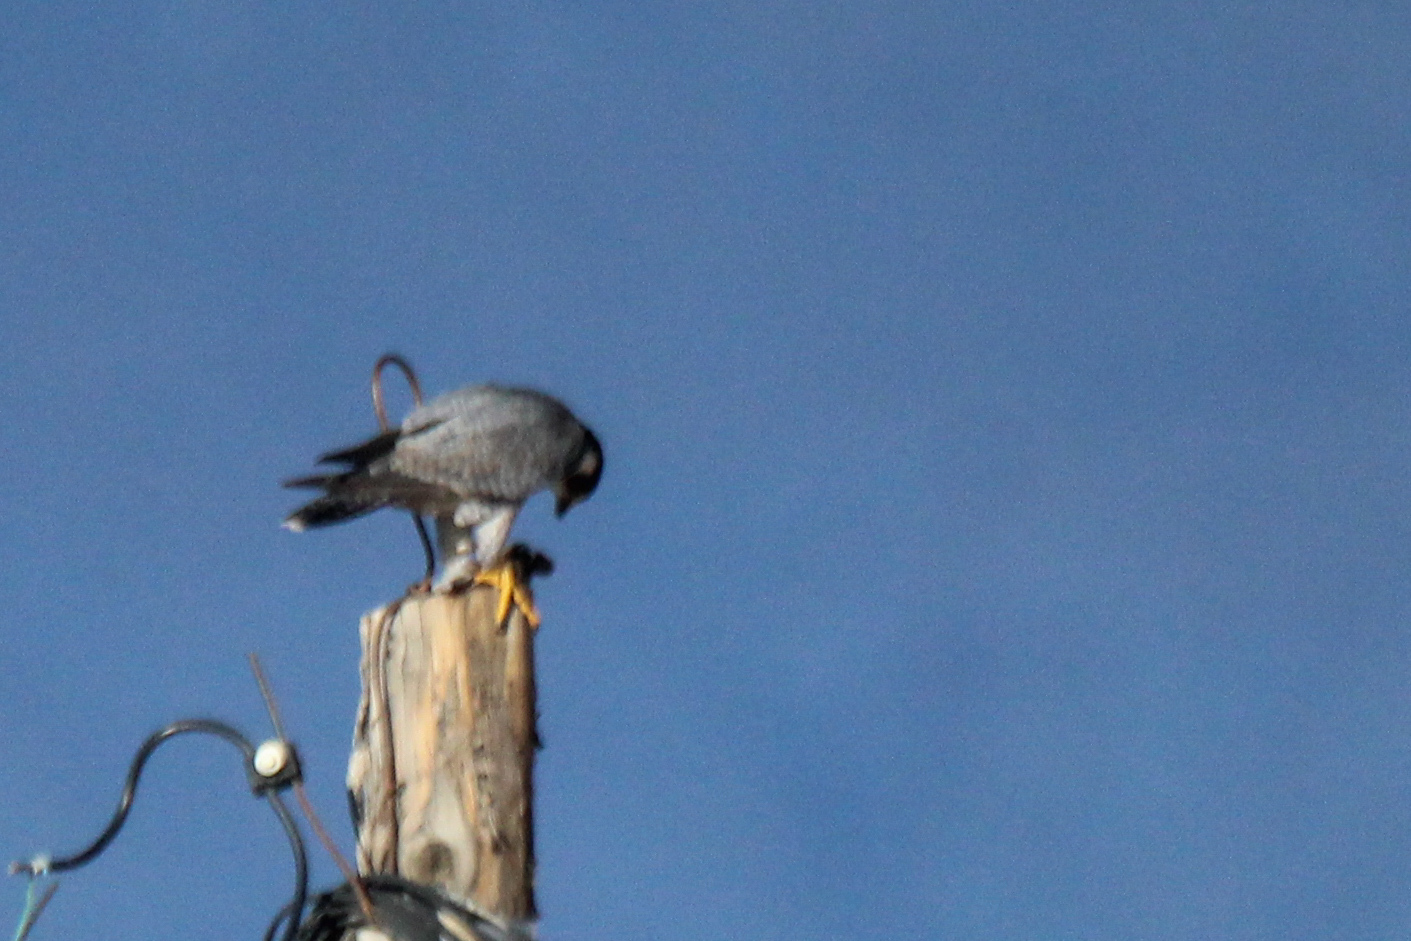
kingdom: Animalia
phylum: Chordata
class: Aves
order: Falconiformes
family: Falconidae
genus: Falco
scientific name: Falco peregrinus
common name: Peregrine falcon
